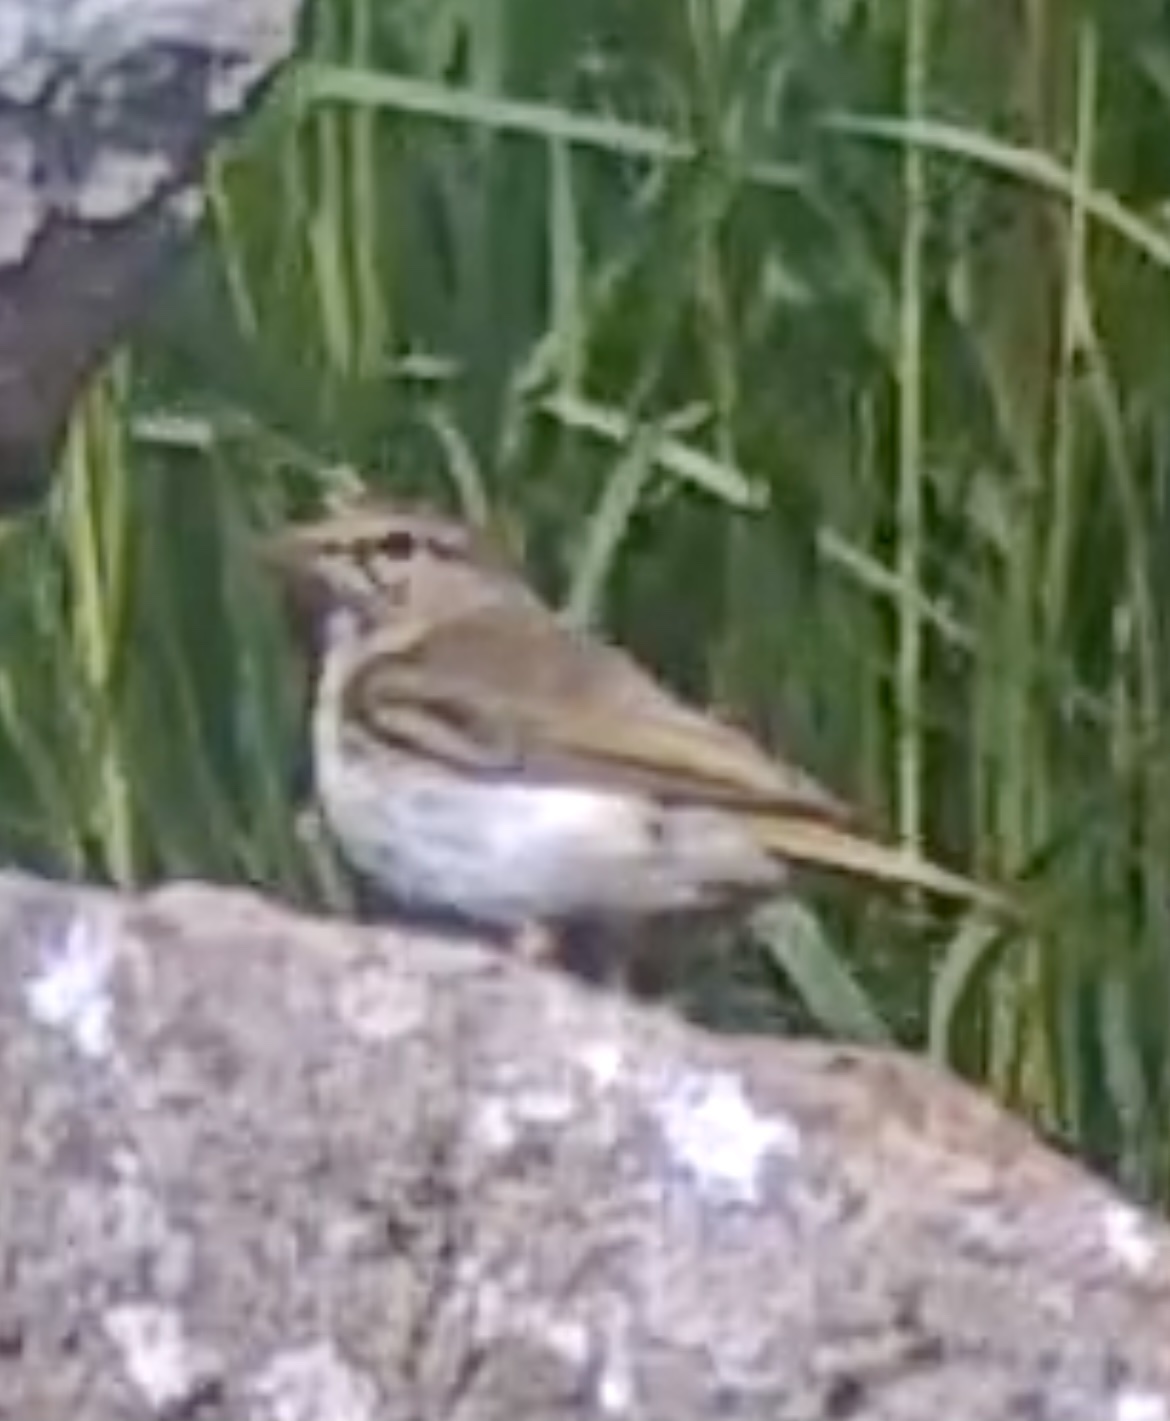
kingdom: Animalia
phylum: Chordata
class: Aves
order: Passeriformes
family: Phylloscopidae
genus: Phylloscopus
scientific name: Phylloscopus bonelli
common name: Western bonelli's warbler
